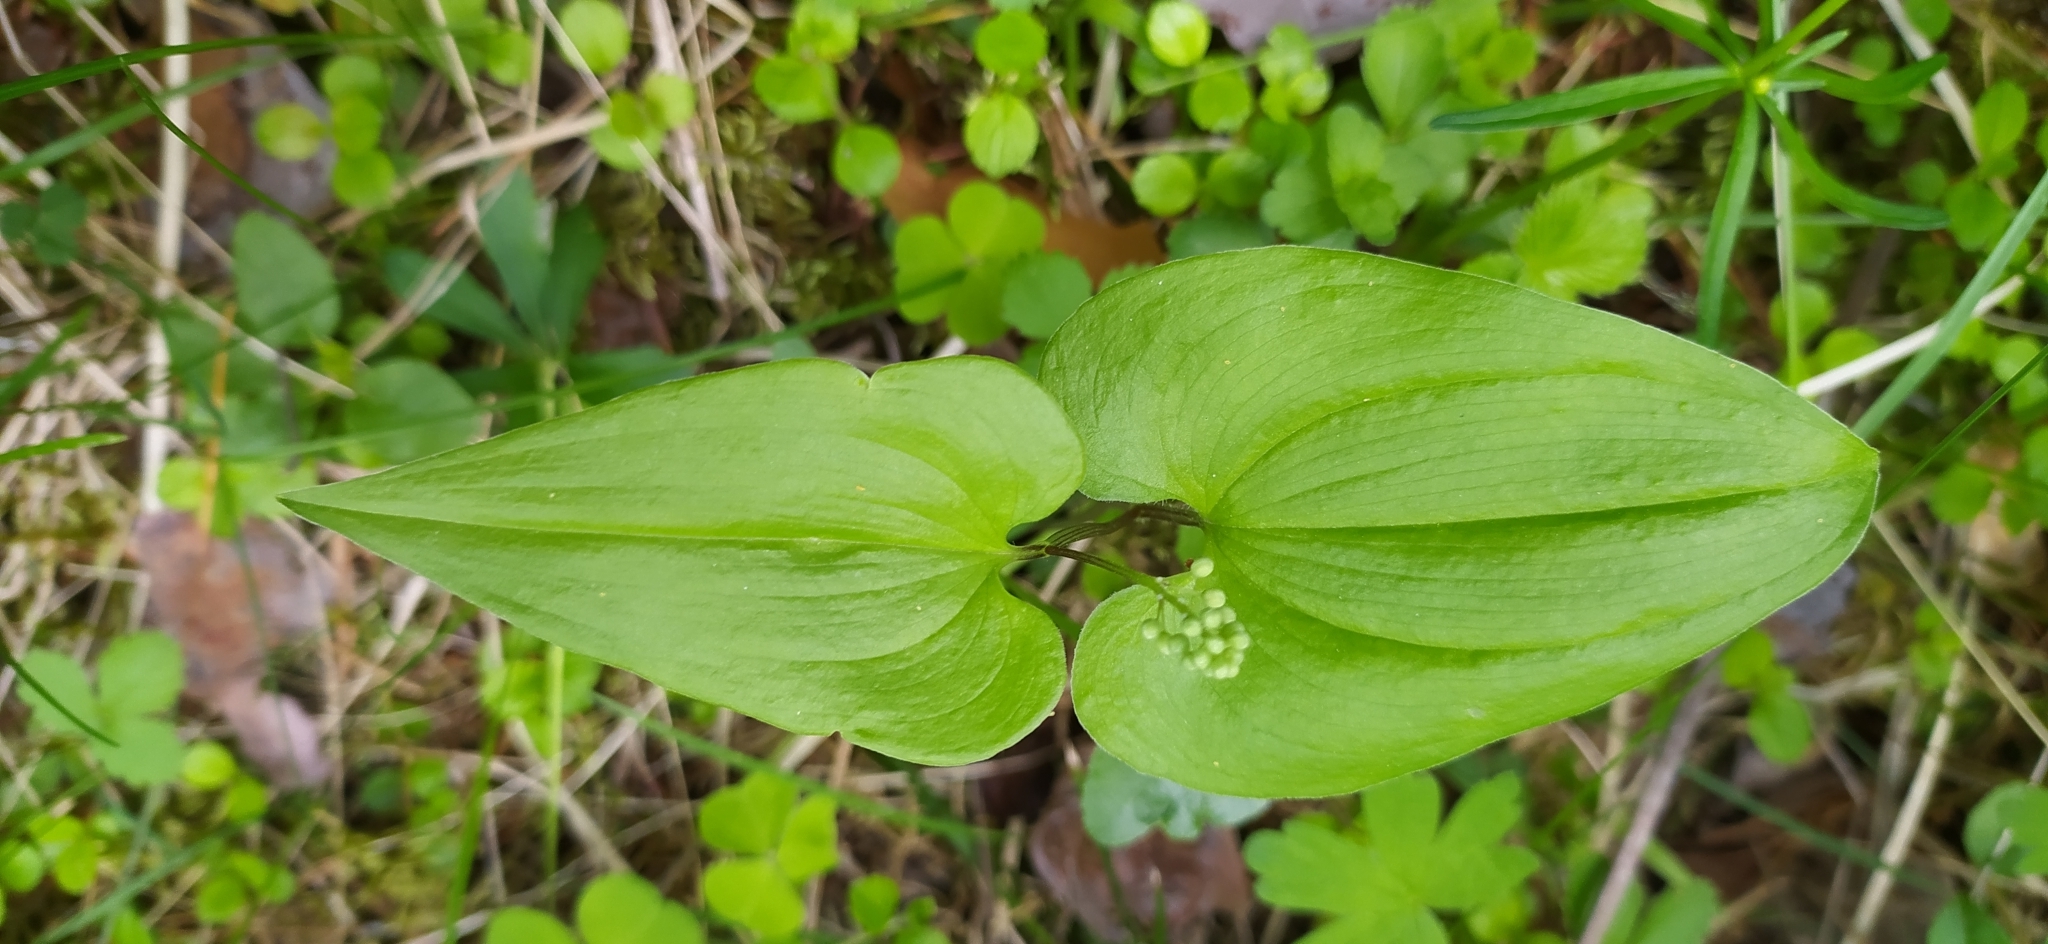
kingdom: Plantae
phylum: Tracheophyta
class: Liliopsida
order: Asparagales
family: Asparagaceae
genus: Maianthemum
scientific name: Maianthemum bifolium
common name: May lily
